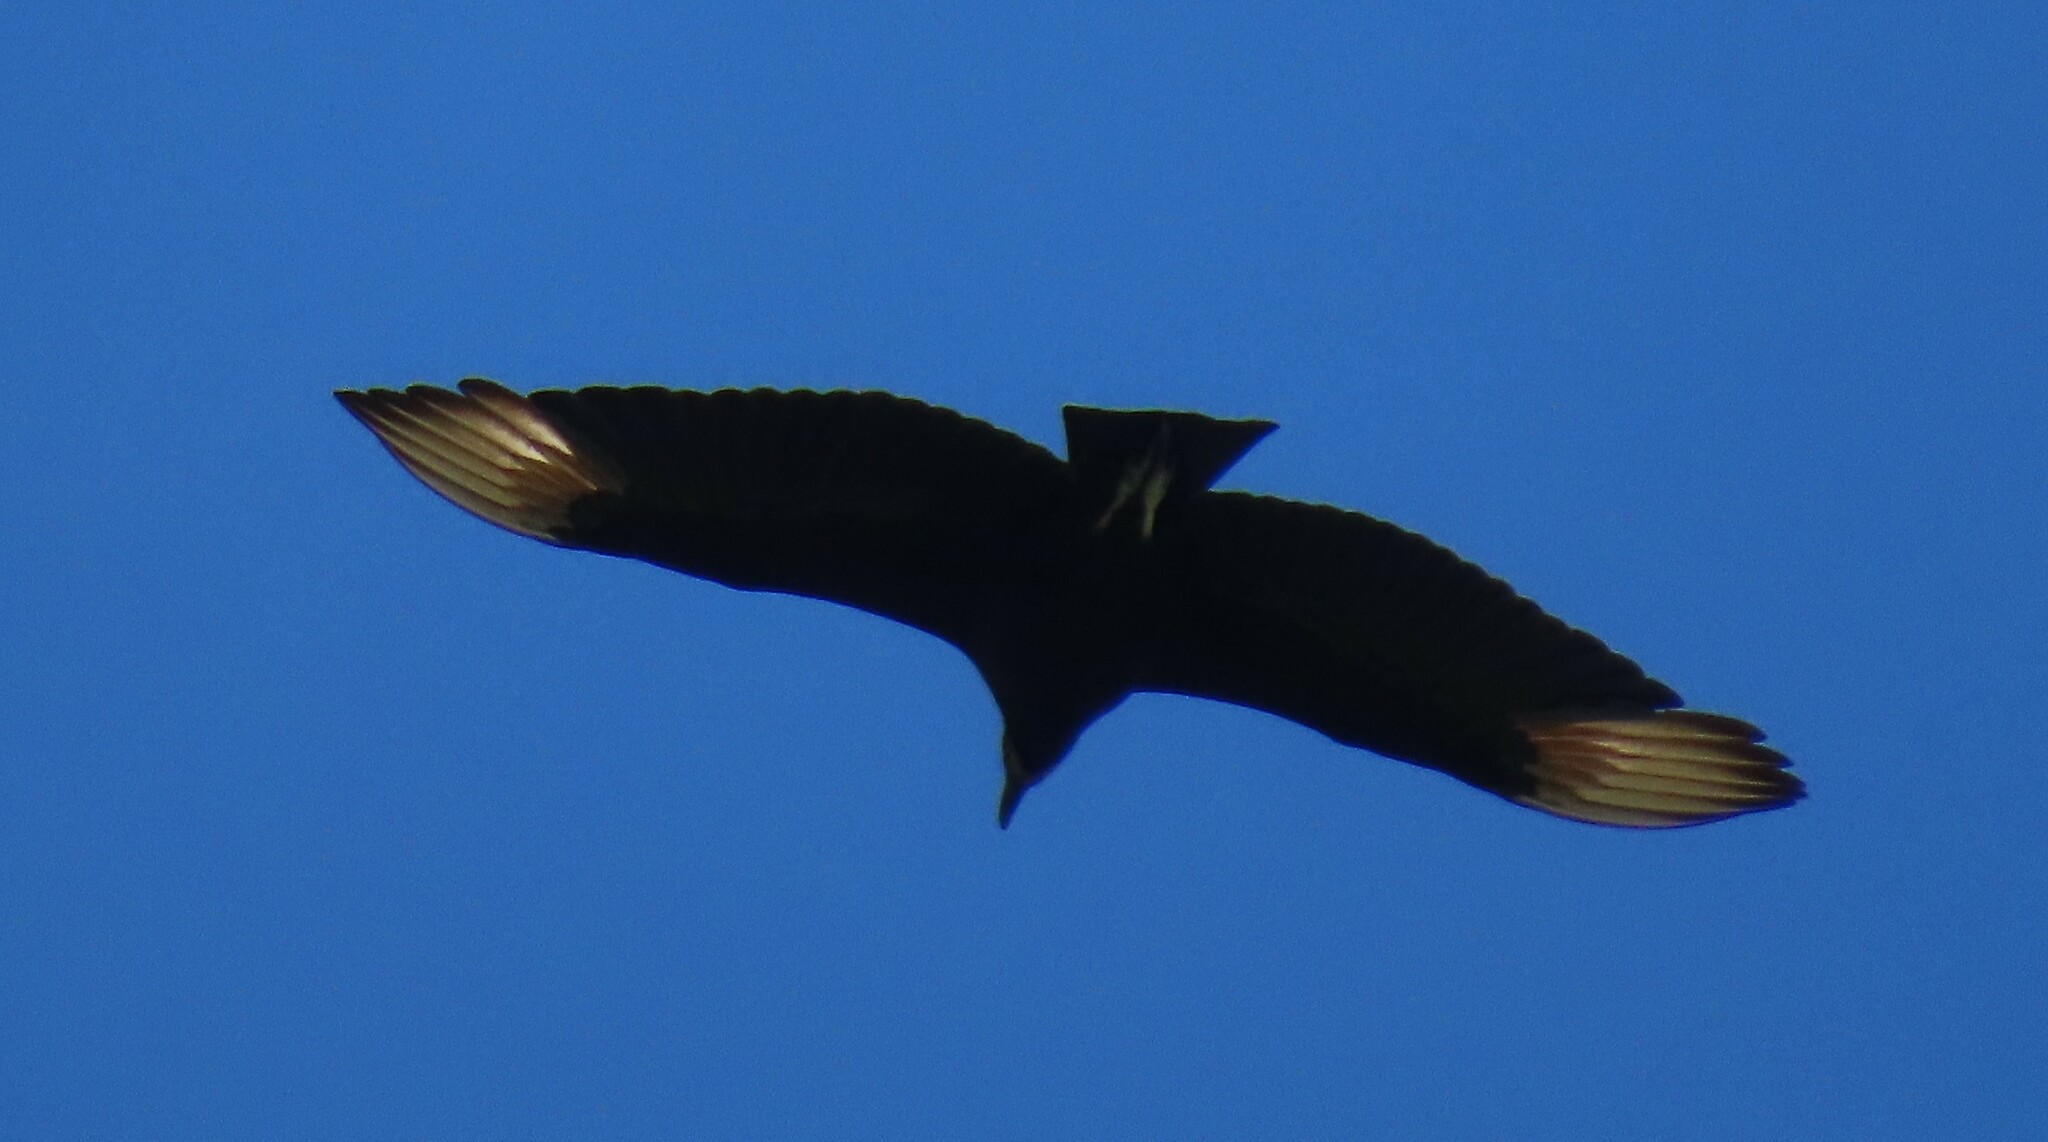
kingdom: Animalia
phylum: Chordata
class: Aves
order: Accipitriformes
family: Cathartidae
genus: Coragyps
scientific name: Coragyps atratus
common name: Black vulture
